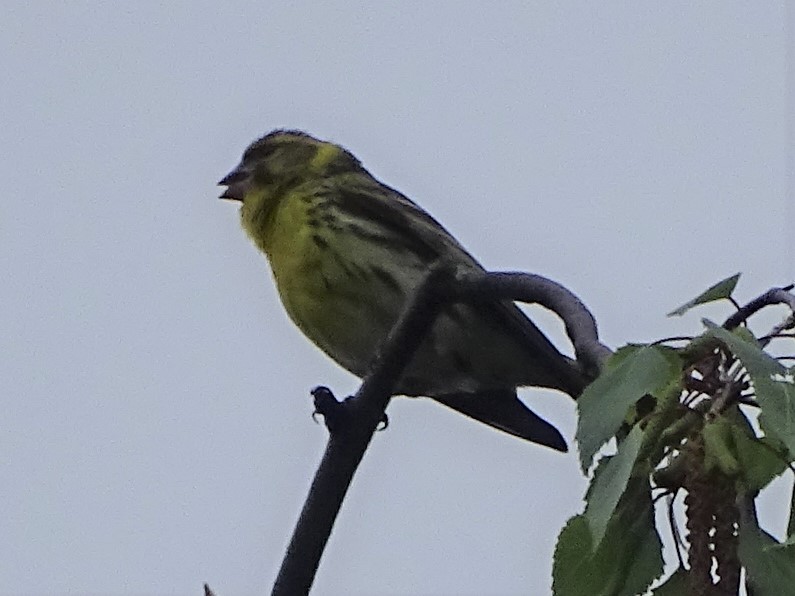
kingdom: Animalia
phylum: Chordata
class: Aves
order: Passeriformes
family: Fringillidae
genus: Serinus
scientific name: Serinus serinus
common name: European serin
